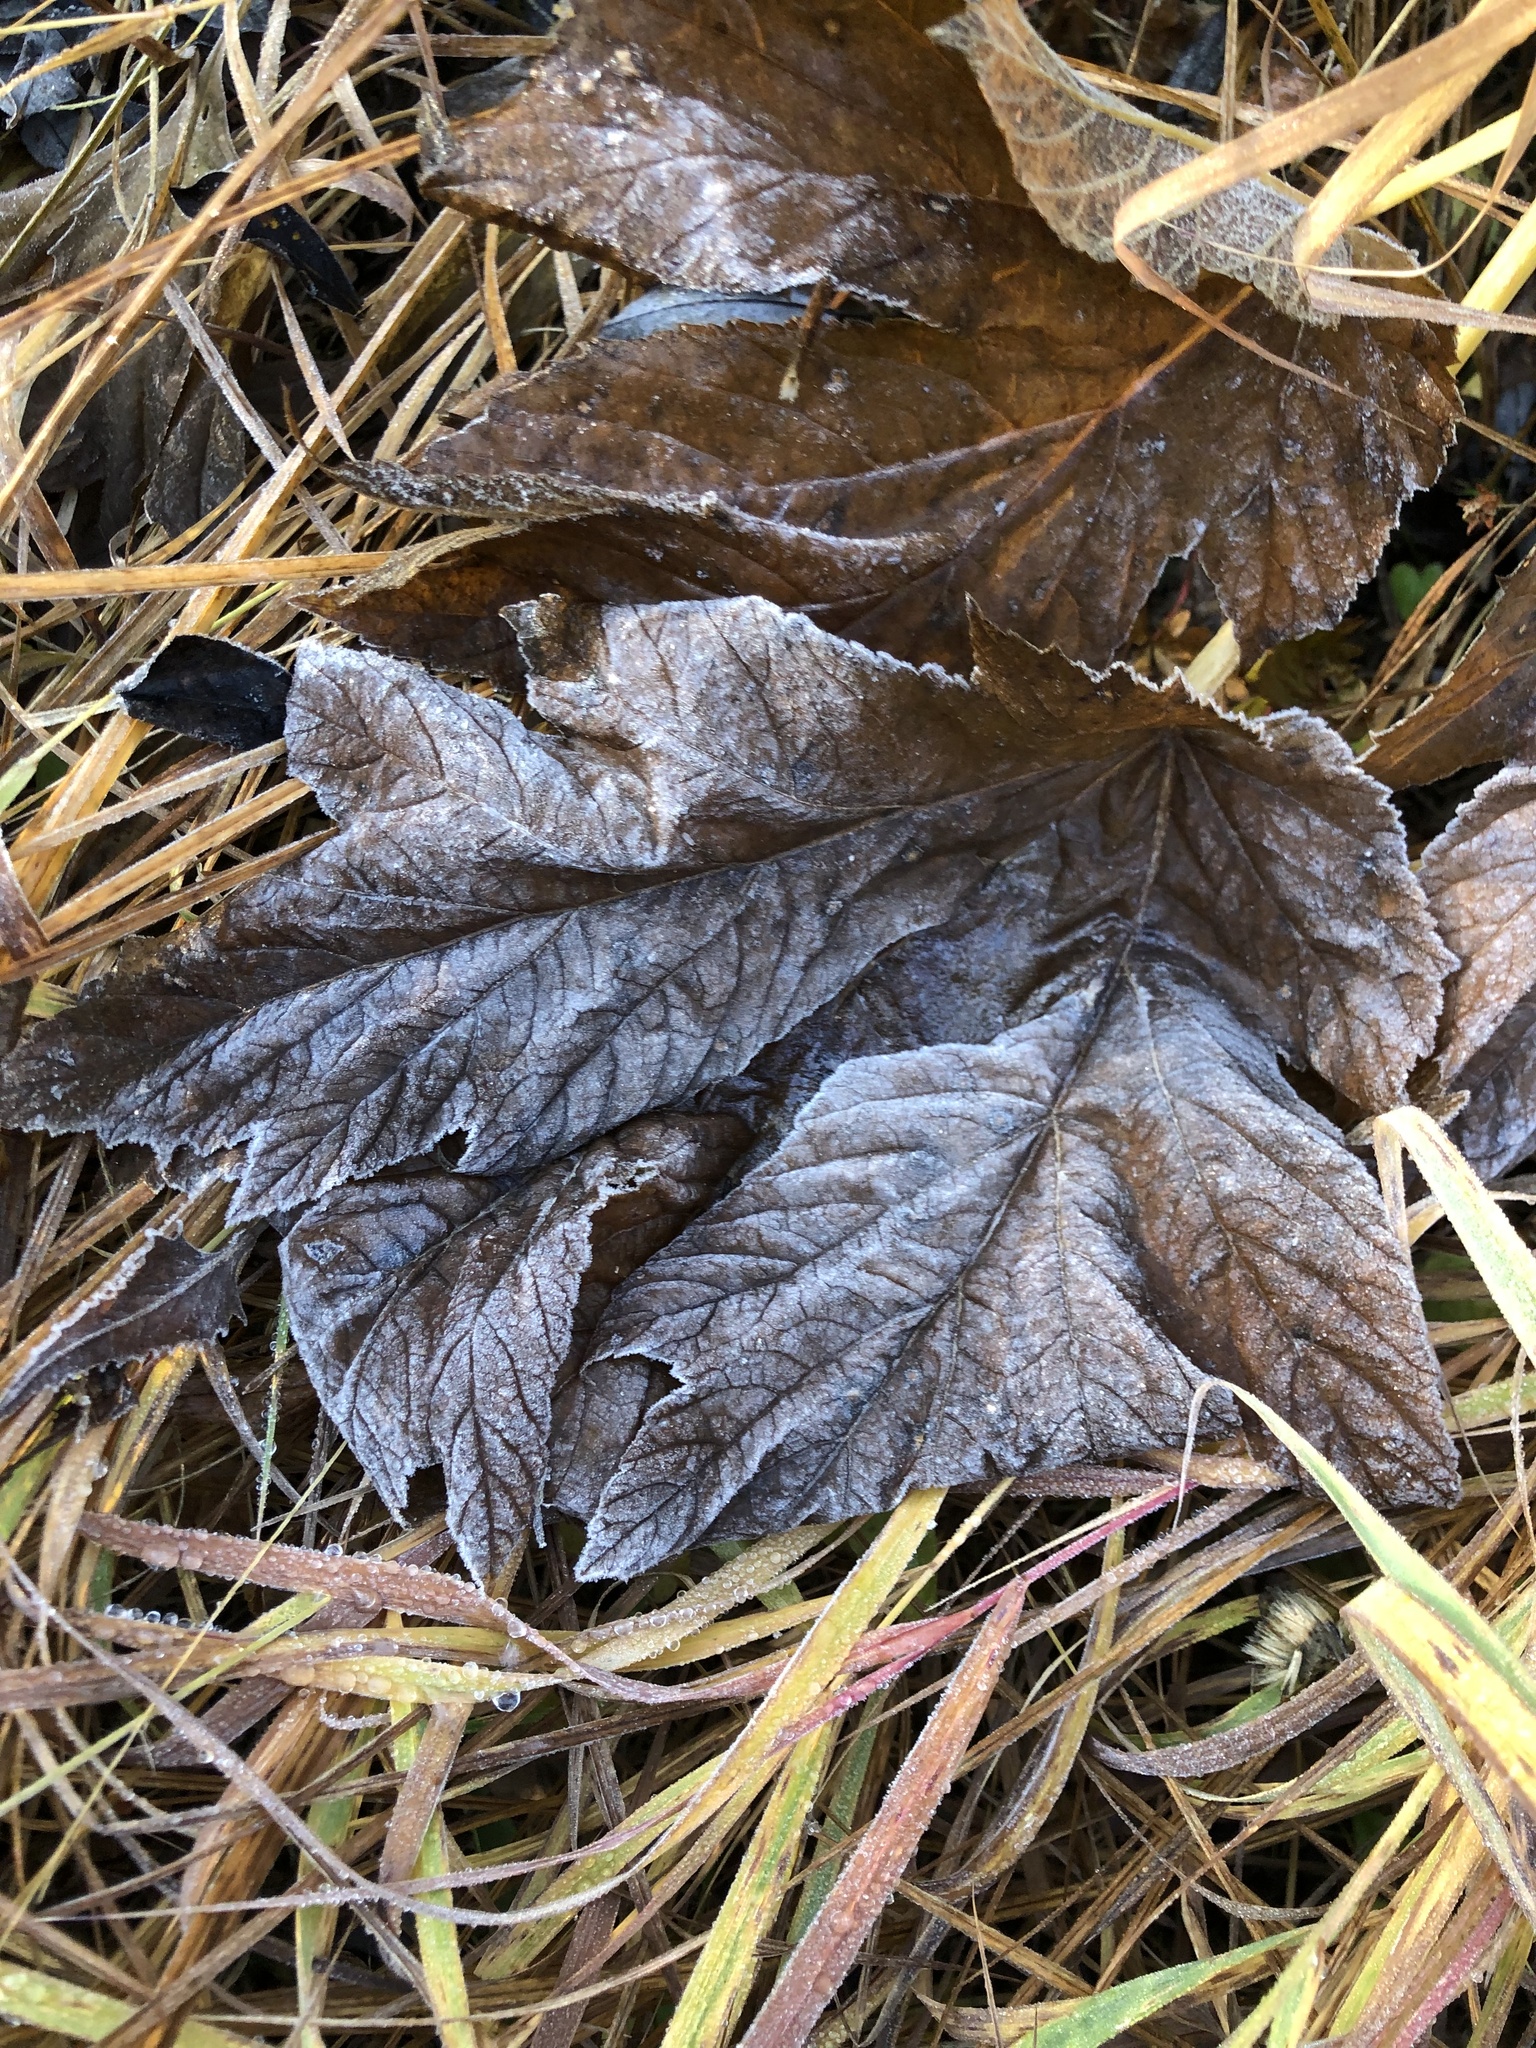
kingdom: Plantae
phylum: Tracheophyta
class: Magnoliopsida
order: Apiales
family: Apiaceae
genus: Heracleum
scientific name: Heracleum maximum
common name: American cow parsnip
